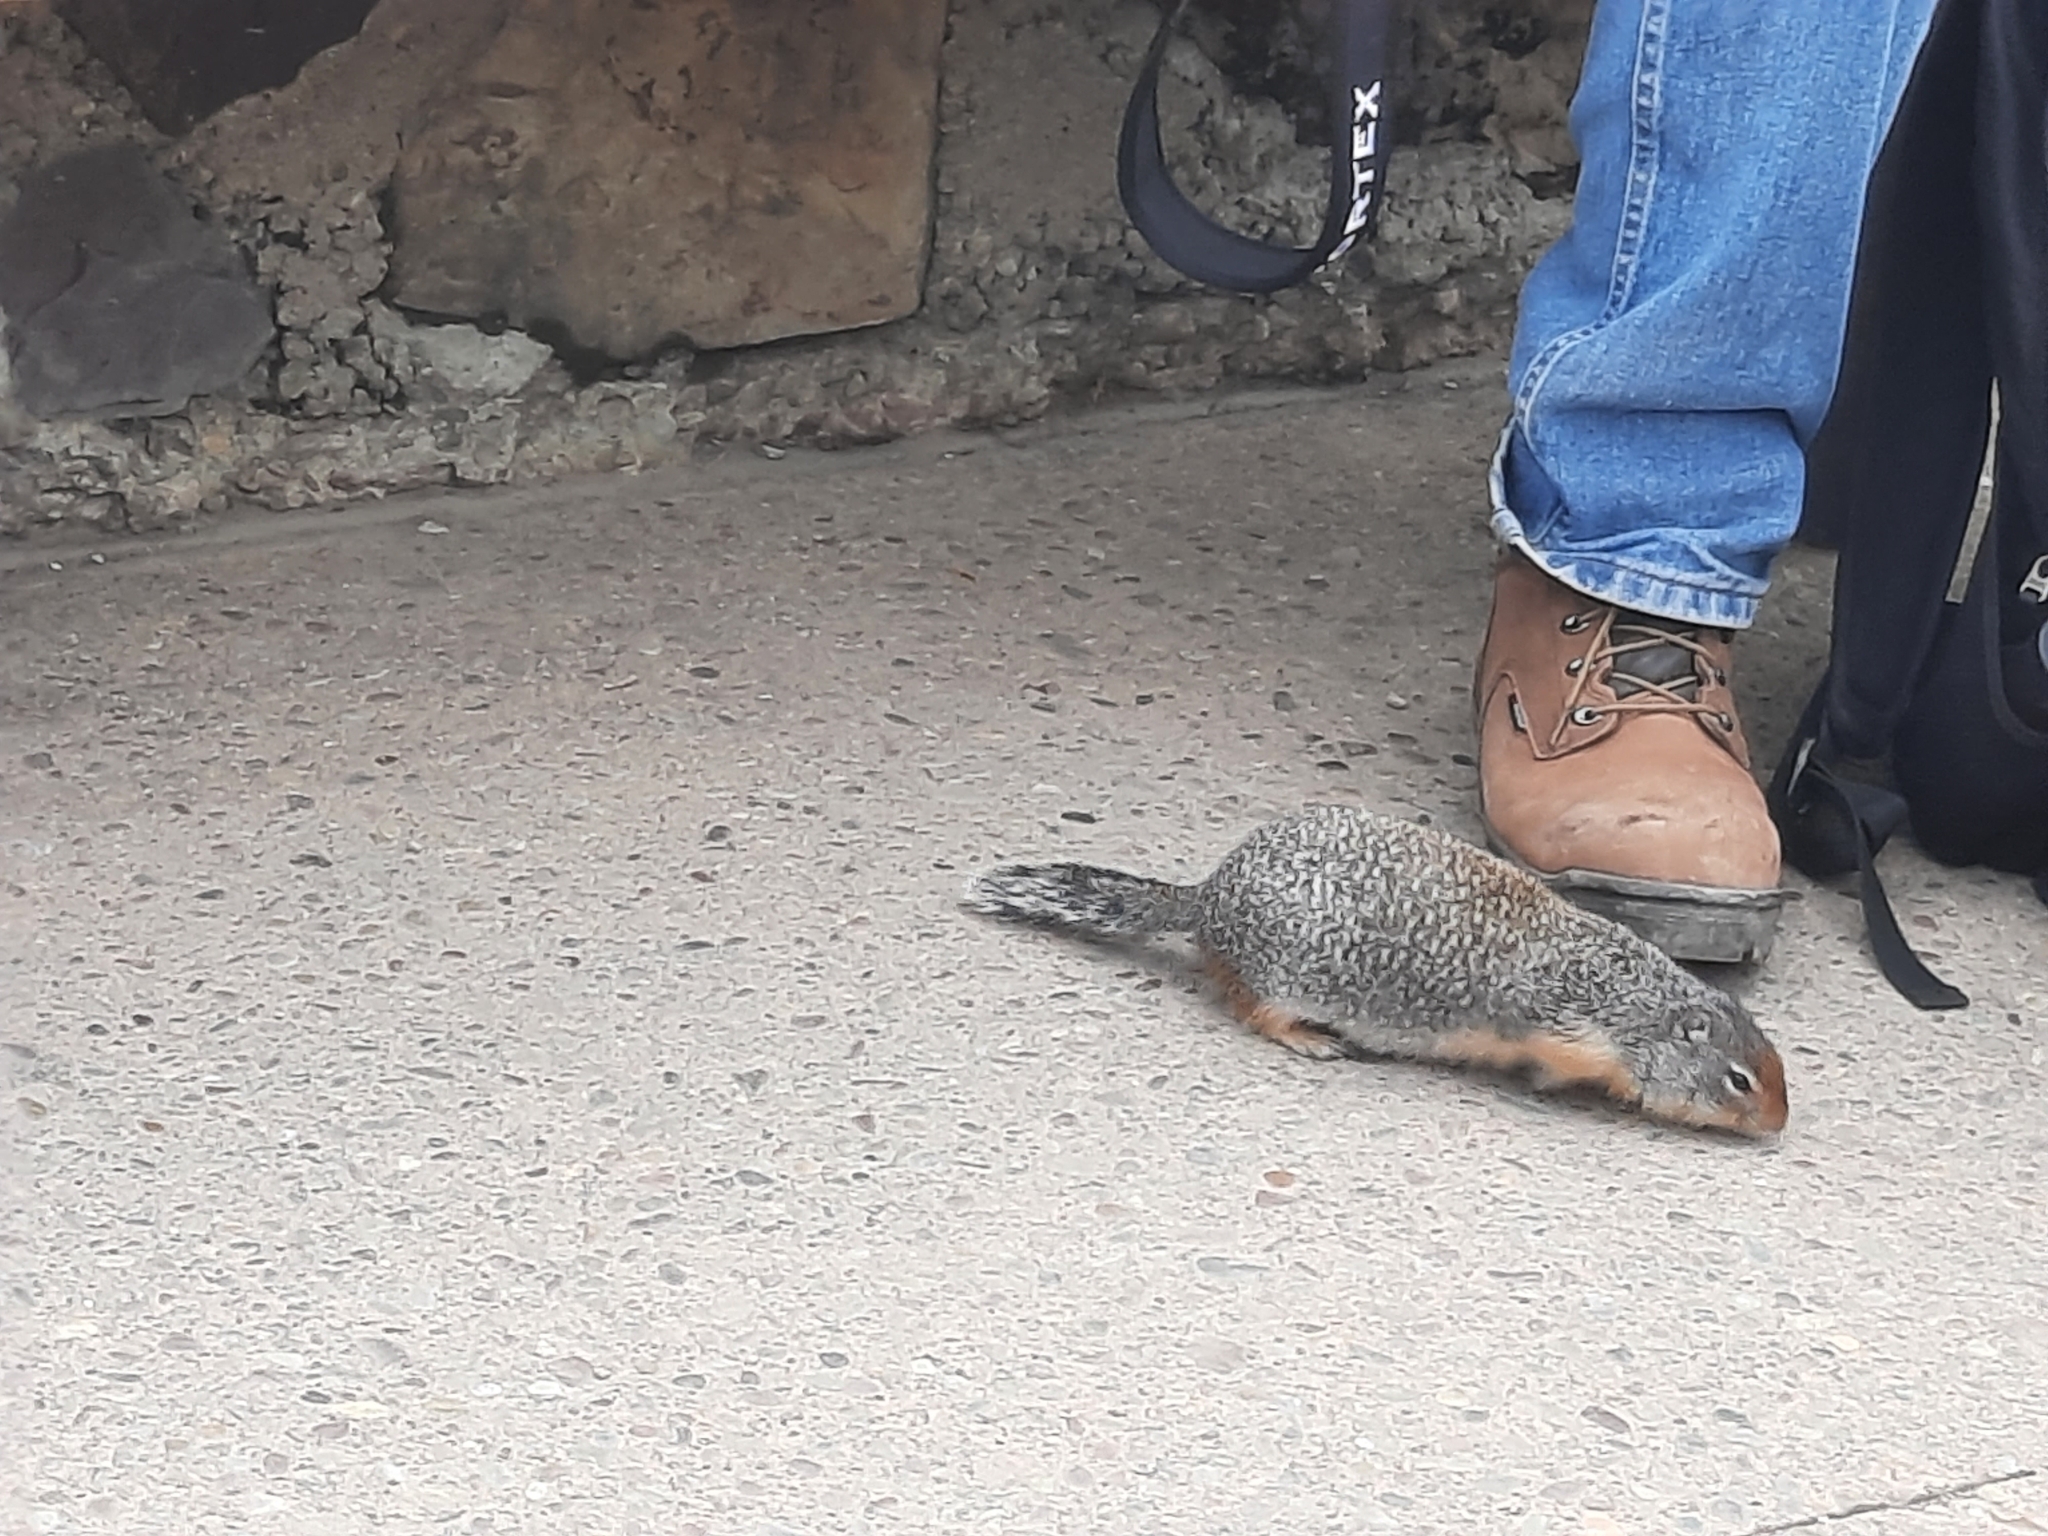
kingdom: Animalia
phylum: Chordata
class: Mammalia
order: Rodentia
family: Sciuridae
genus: Urocitellus
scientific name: Urocitellus columbianus
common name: Columbian ground squirrel
